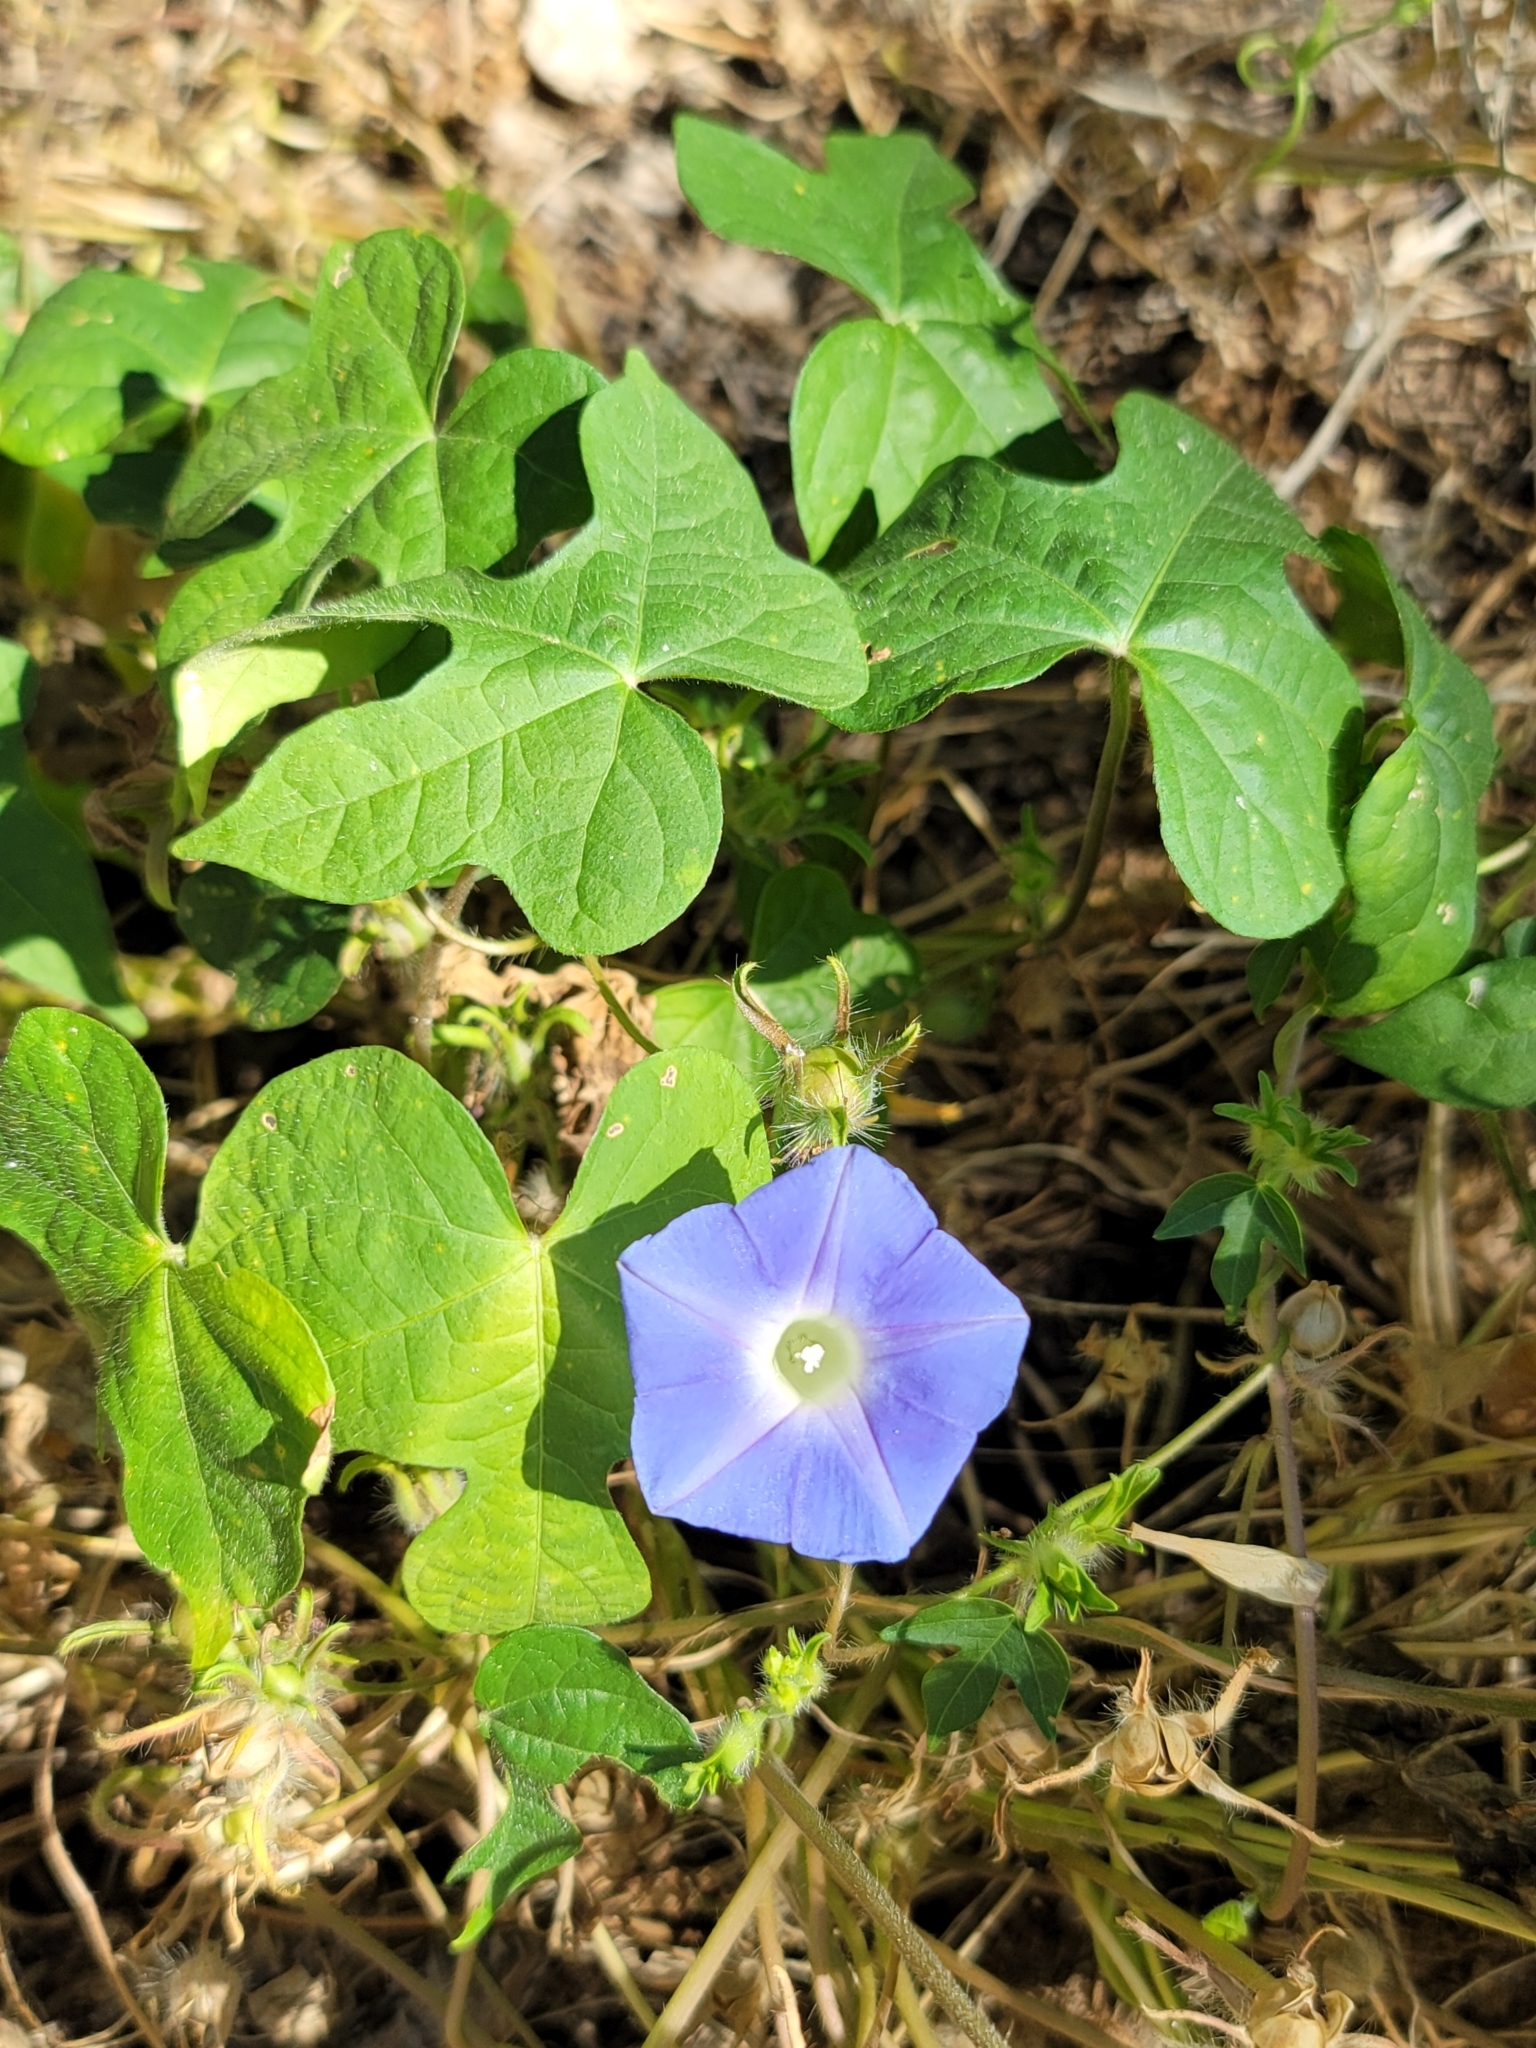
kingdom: Plantae
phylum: Tracheophyta
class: Magnoliopsida
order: Solanales
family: Convolvulaceae
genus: Ipomoea
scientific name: Ipomoea hederacea
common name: Ivy-leaved morning-glory
